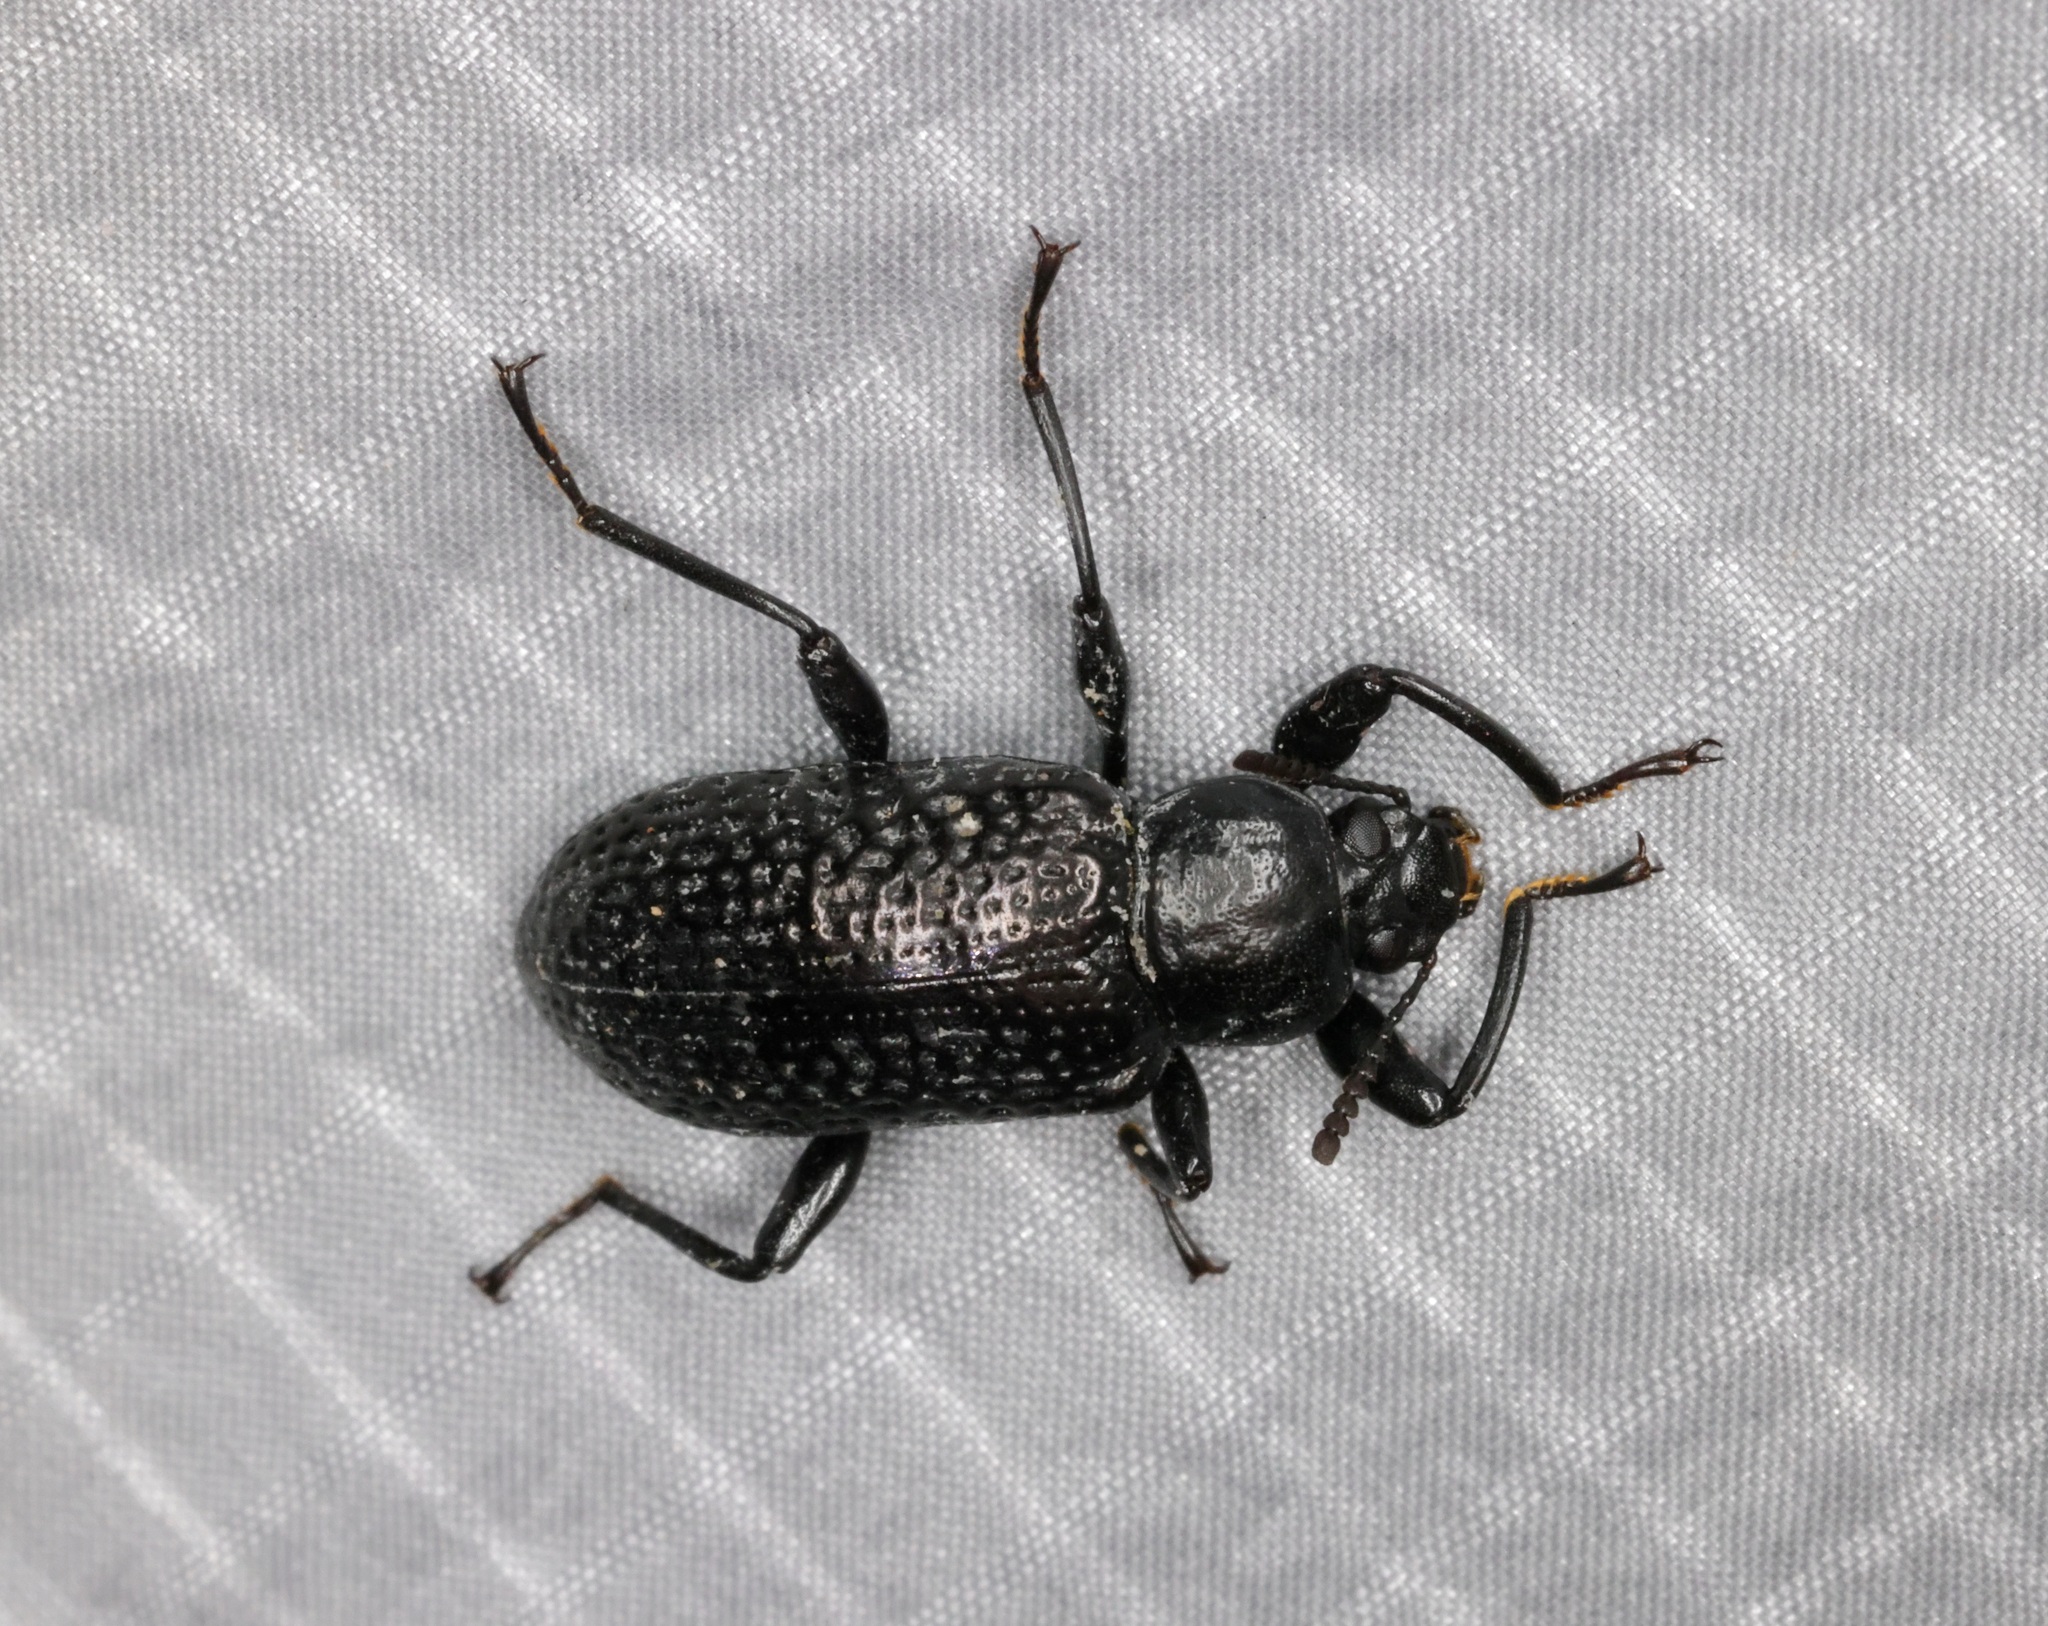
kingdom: Animalia
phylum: Arthropoda
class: Insecta
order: Coleoptera
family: Tenebrionidae
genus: Derosphaerus
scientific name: Derosphaerus sinensis
